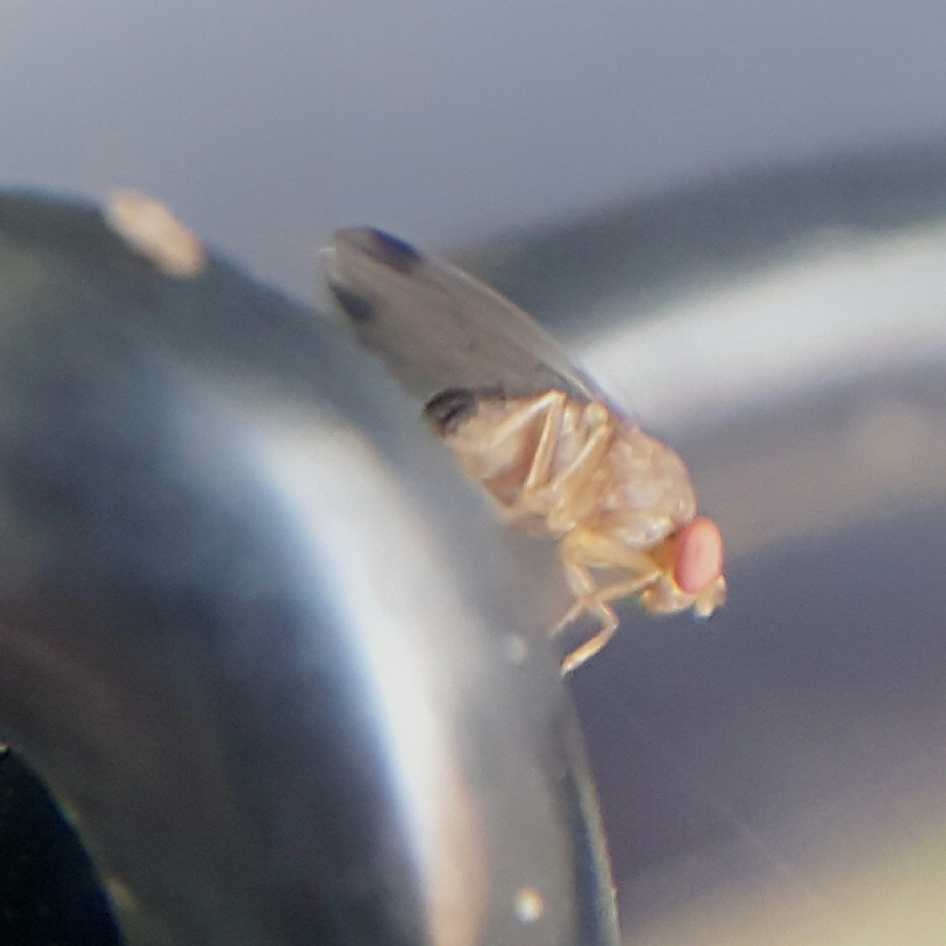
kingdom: Animalia
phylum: Arthropoda
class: Insecta
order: Diptera
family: Drosophilidae
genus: Drosophila
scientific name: Drosophila suzukii
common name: Spotted-wing drosophila
